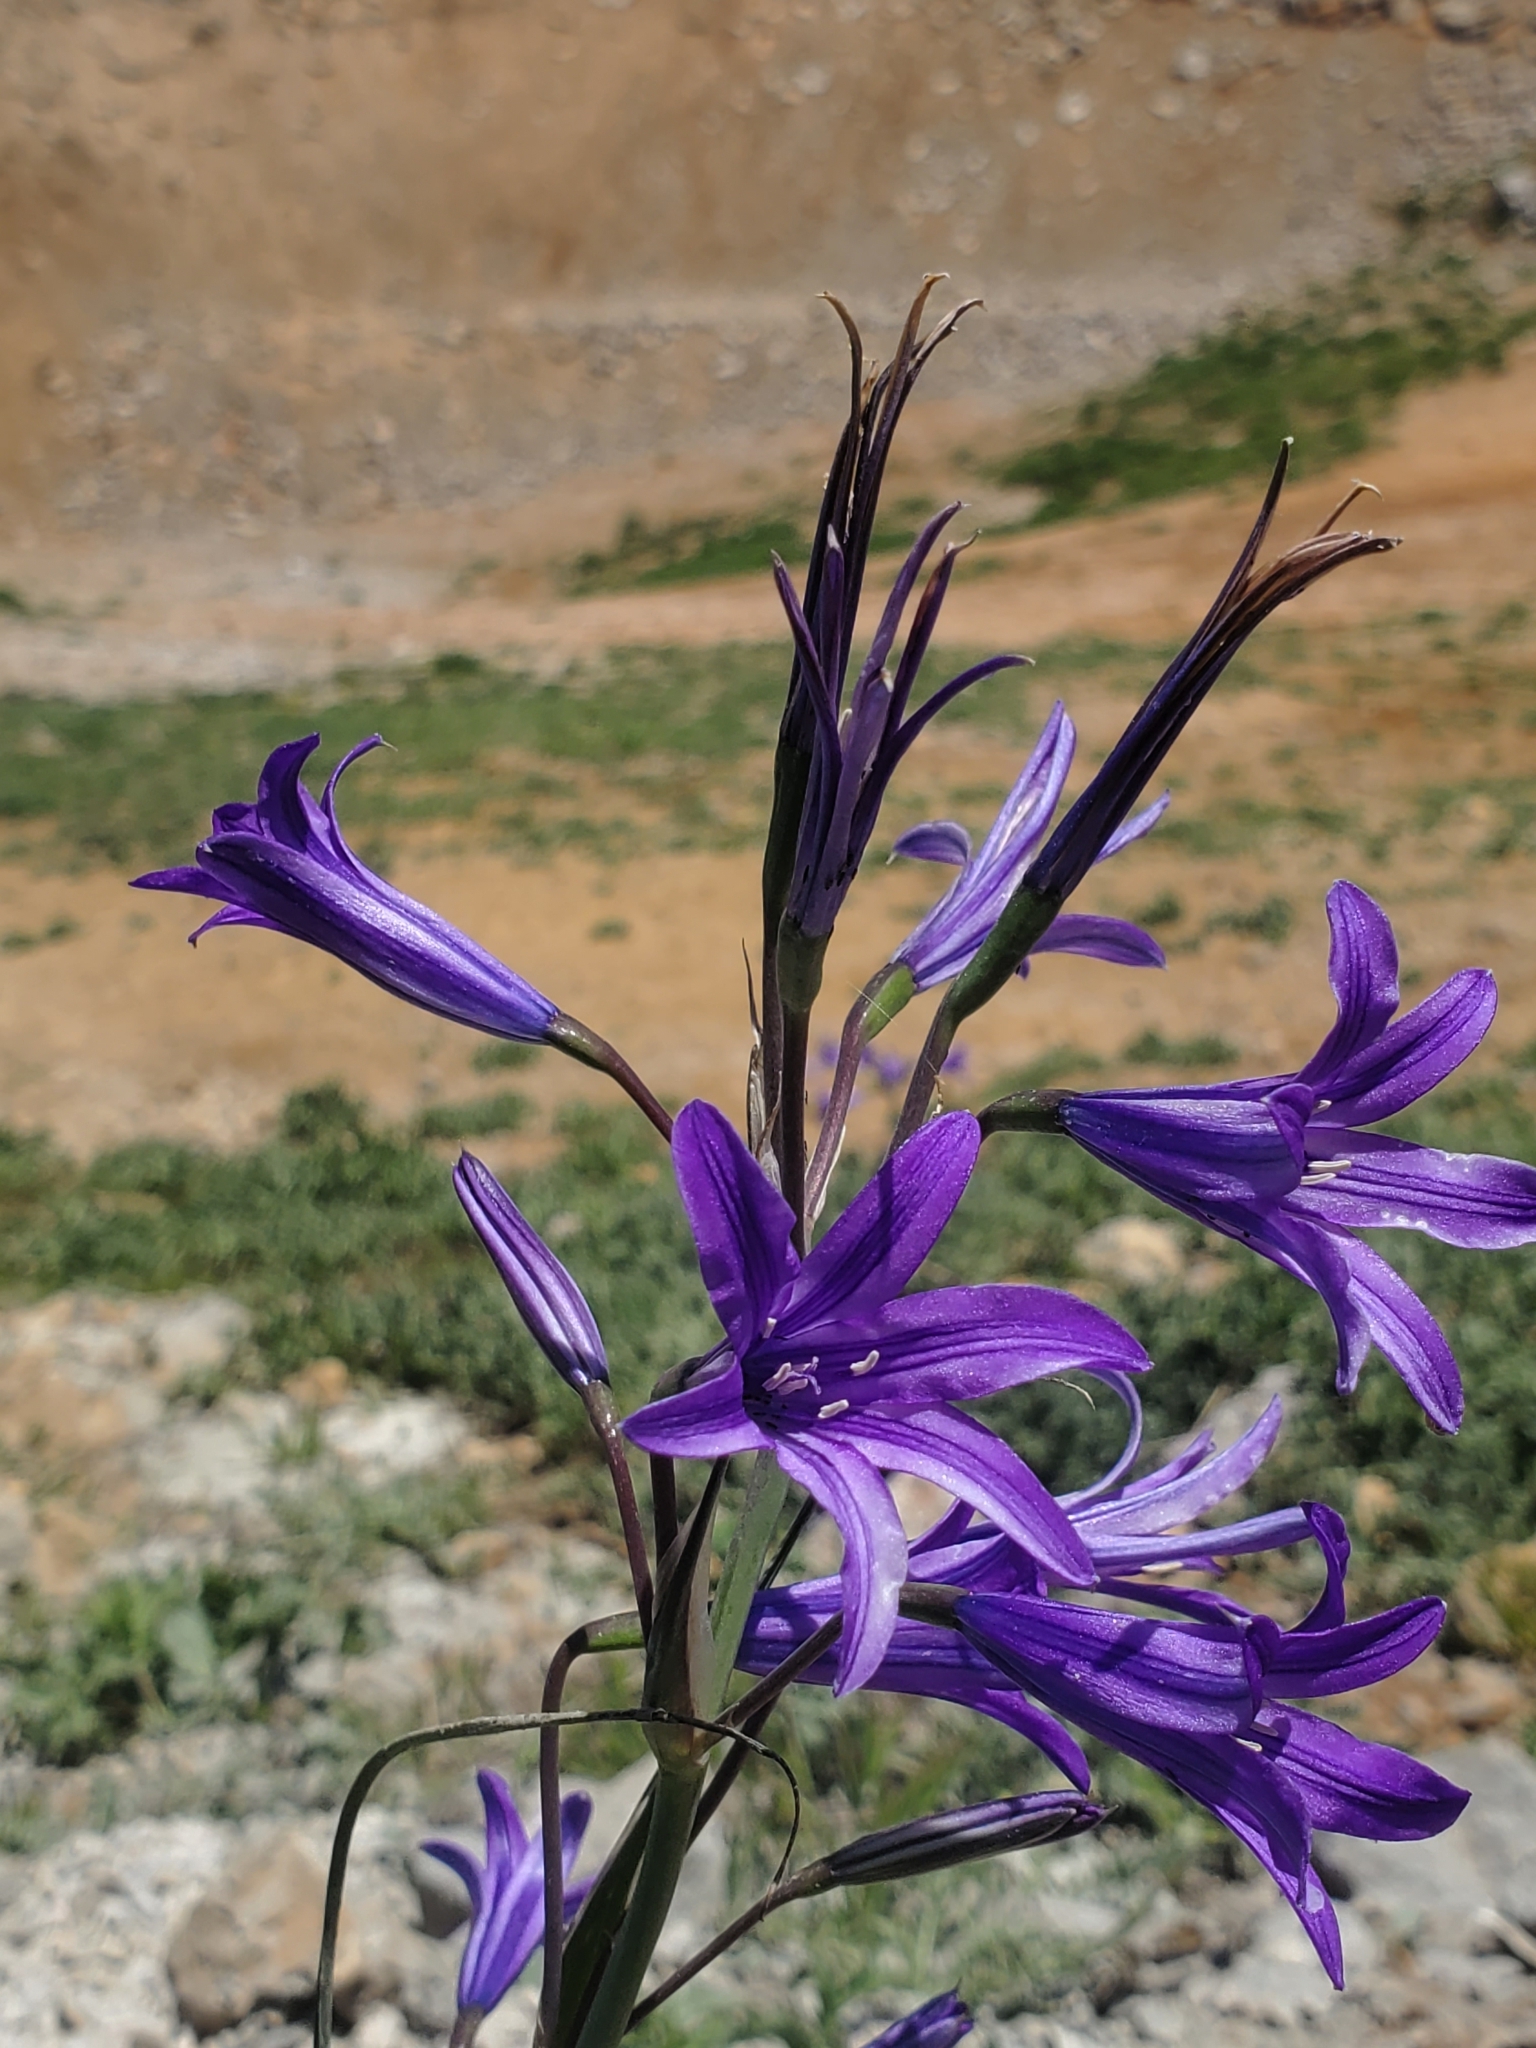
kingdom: Plantae
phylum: Tracheophyta
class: Liliopsida
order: Asparagales
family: Ixioliriaceae
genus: Ixiolirion
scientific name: Ixiolirion tataricum
